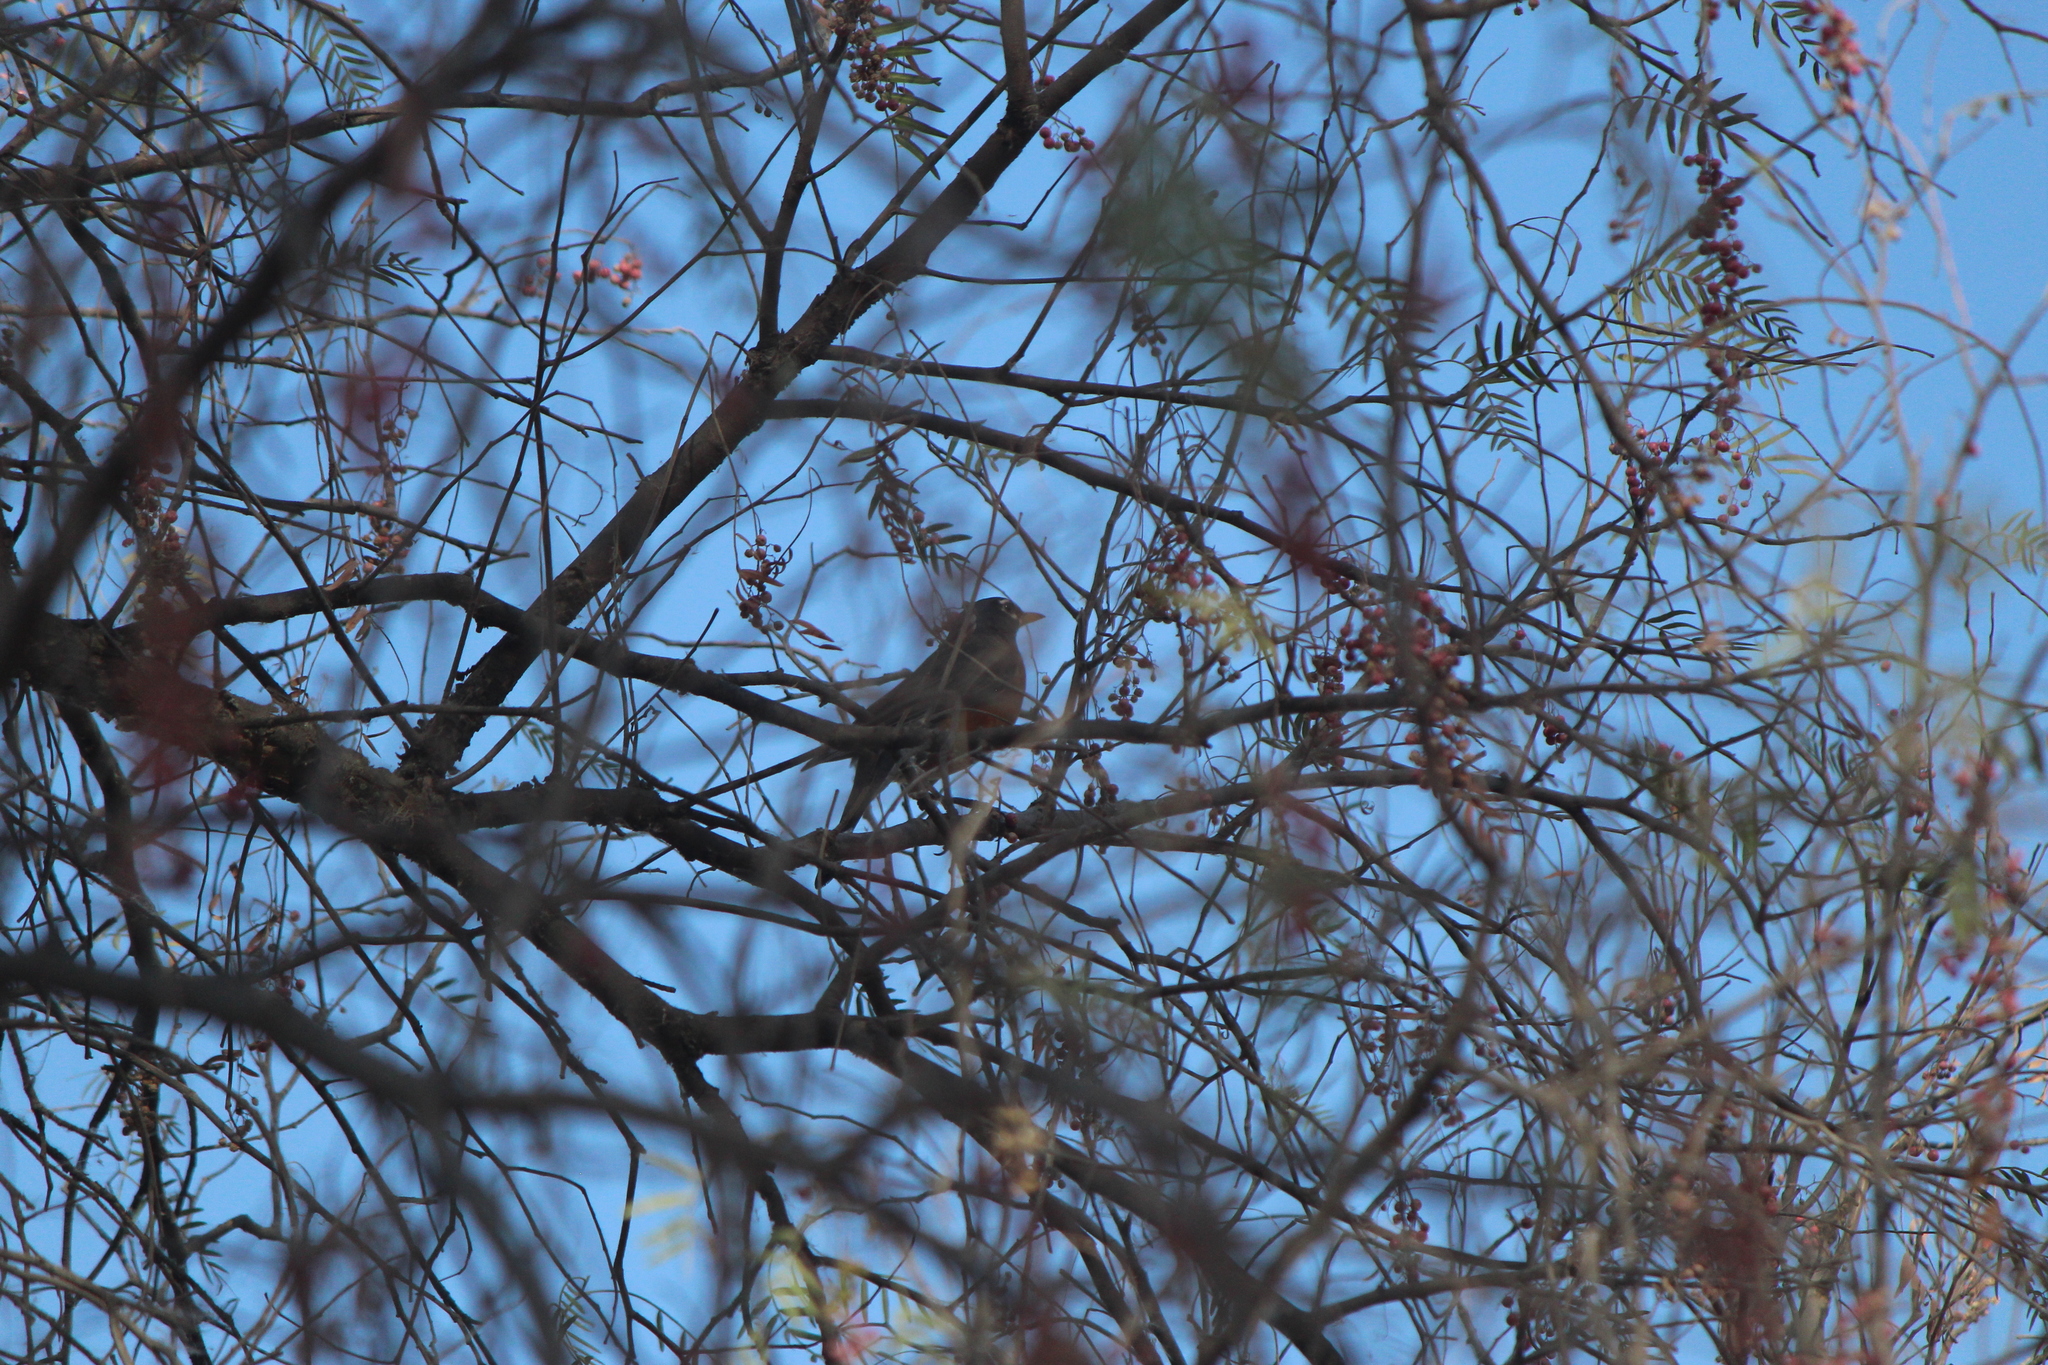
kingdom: Animalia
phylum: Chordata
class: Aves
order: Passeriformes
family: Turdidae
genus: Turdus
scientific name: Turdus migratorius
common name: American robin
